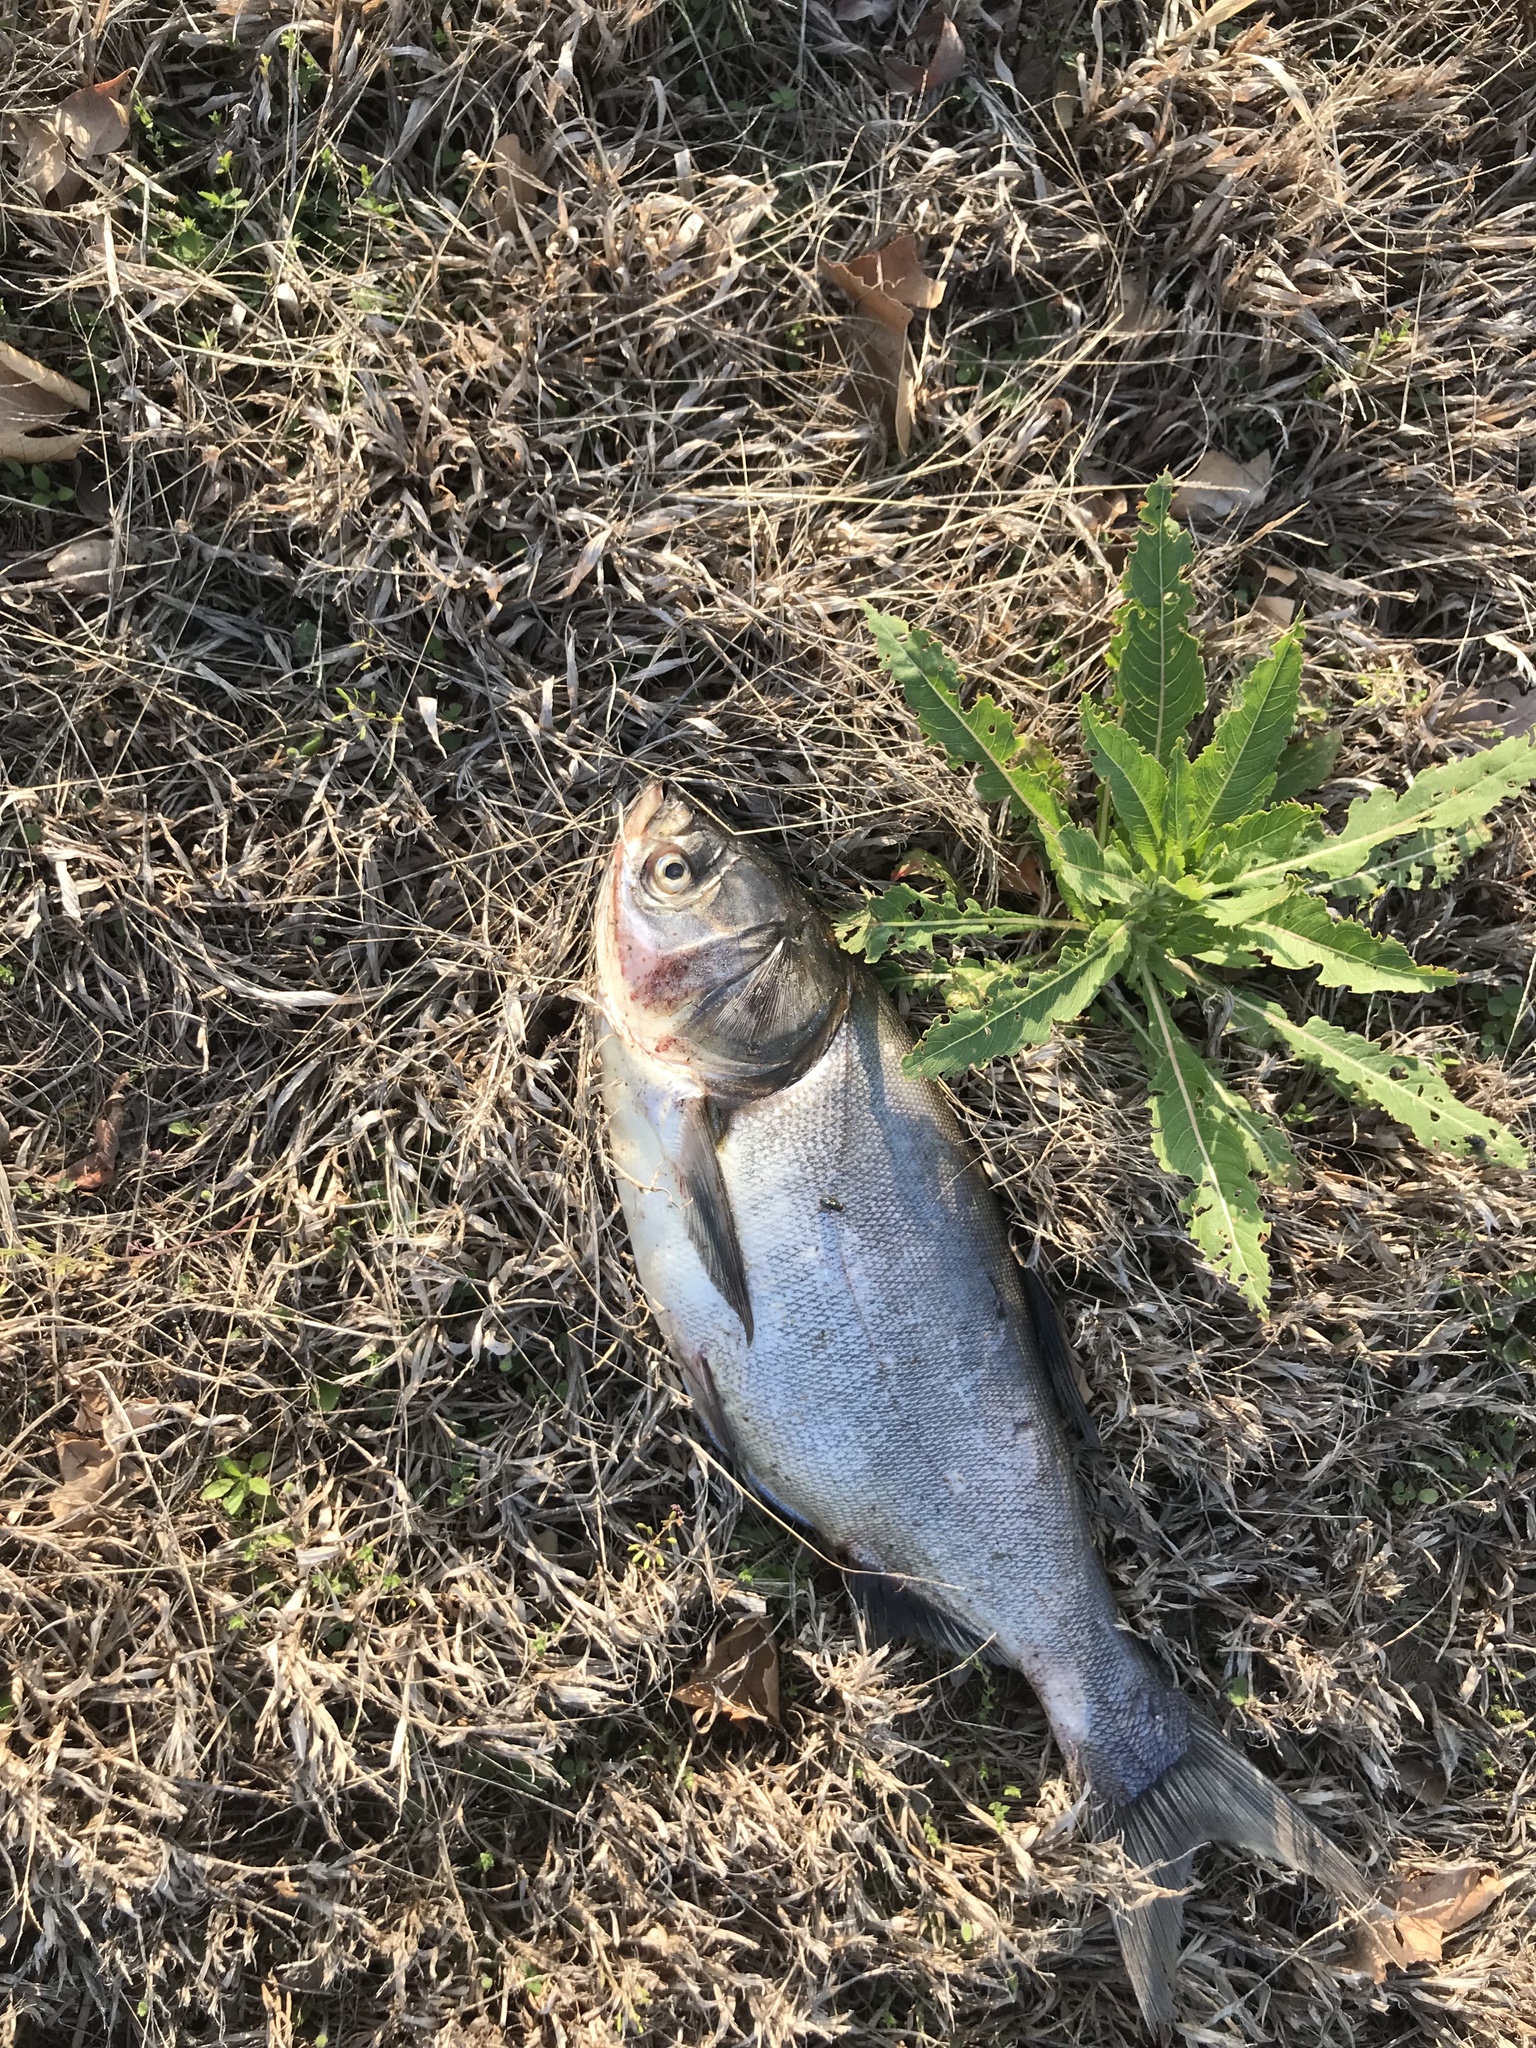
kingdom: Animalia
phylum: Chordata
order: Cypriniformes
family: Cyprinidae
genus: Hypophthalmichthys
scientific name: Hypophthalmichthys molitrix
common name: Silver carp
